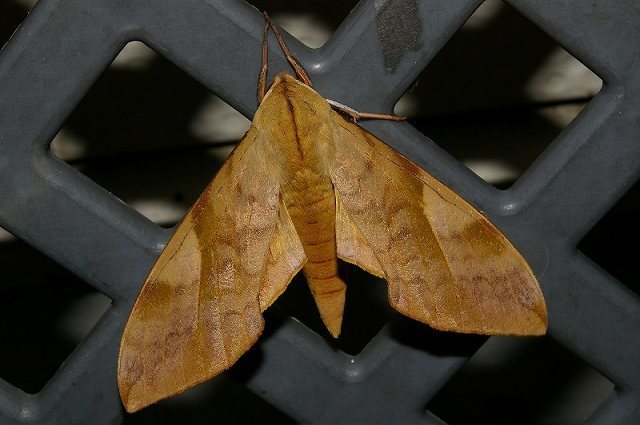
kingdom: Animalia
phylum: Arthropoda
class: Insecta
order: Lepidoptera
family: Sphingidae
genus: Clanis
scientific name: Clanis bilineata
